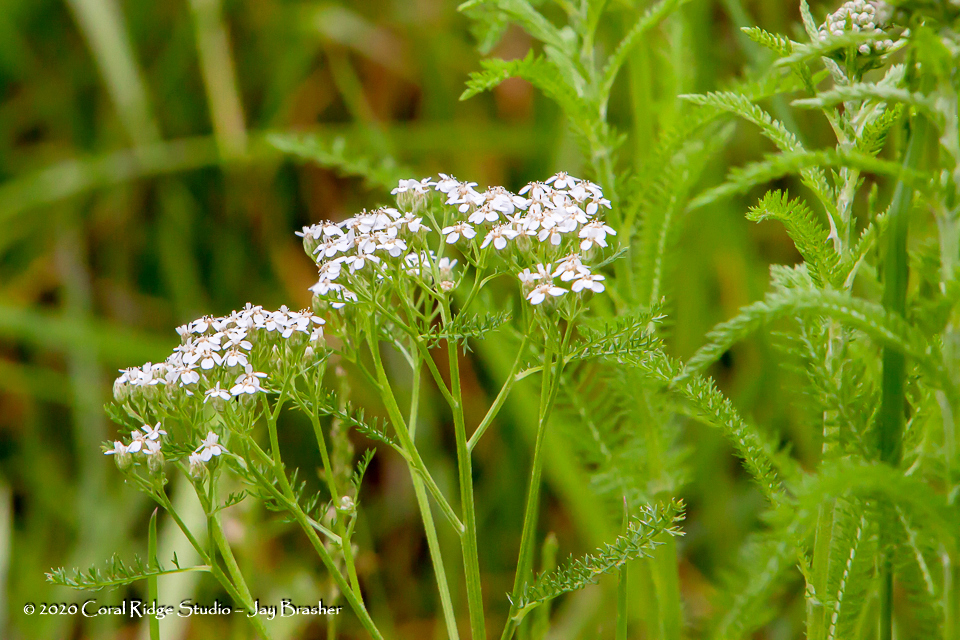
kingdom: Plantae
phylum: Tracheophyta
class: Magnoliopsida
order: Asterales
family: Asteraceae
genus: Achillea
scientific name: Achillea millefolium
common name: Yarrow
